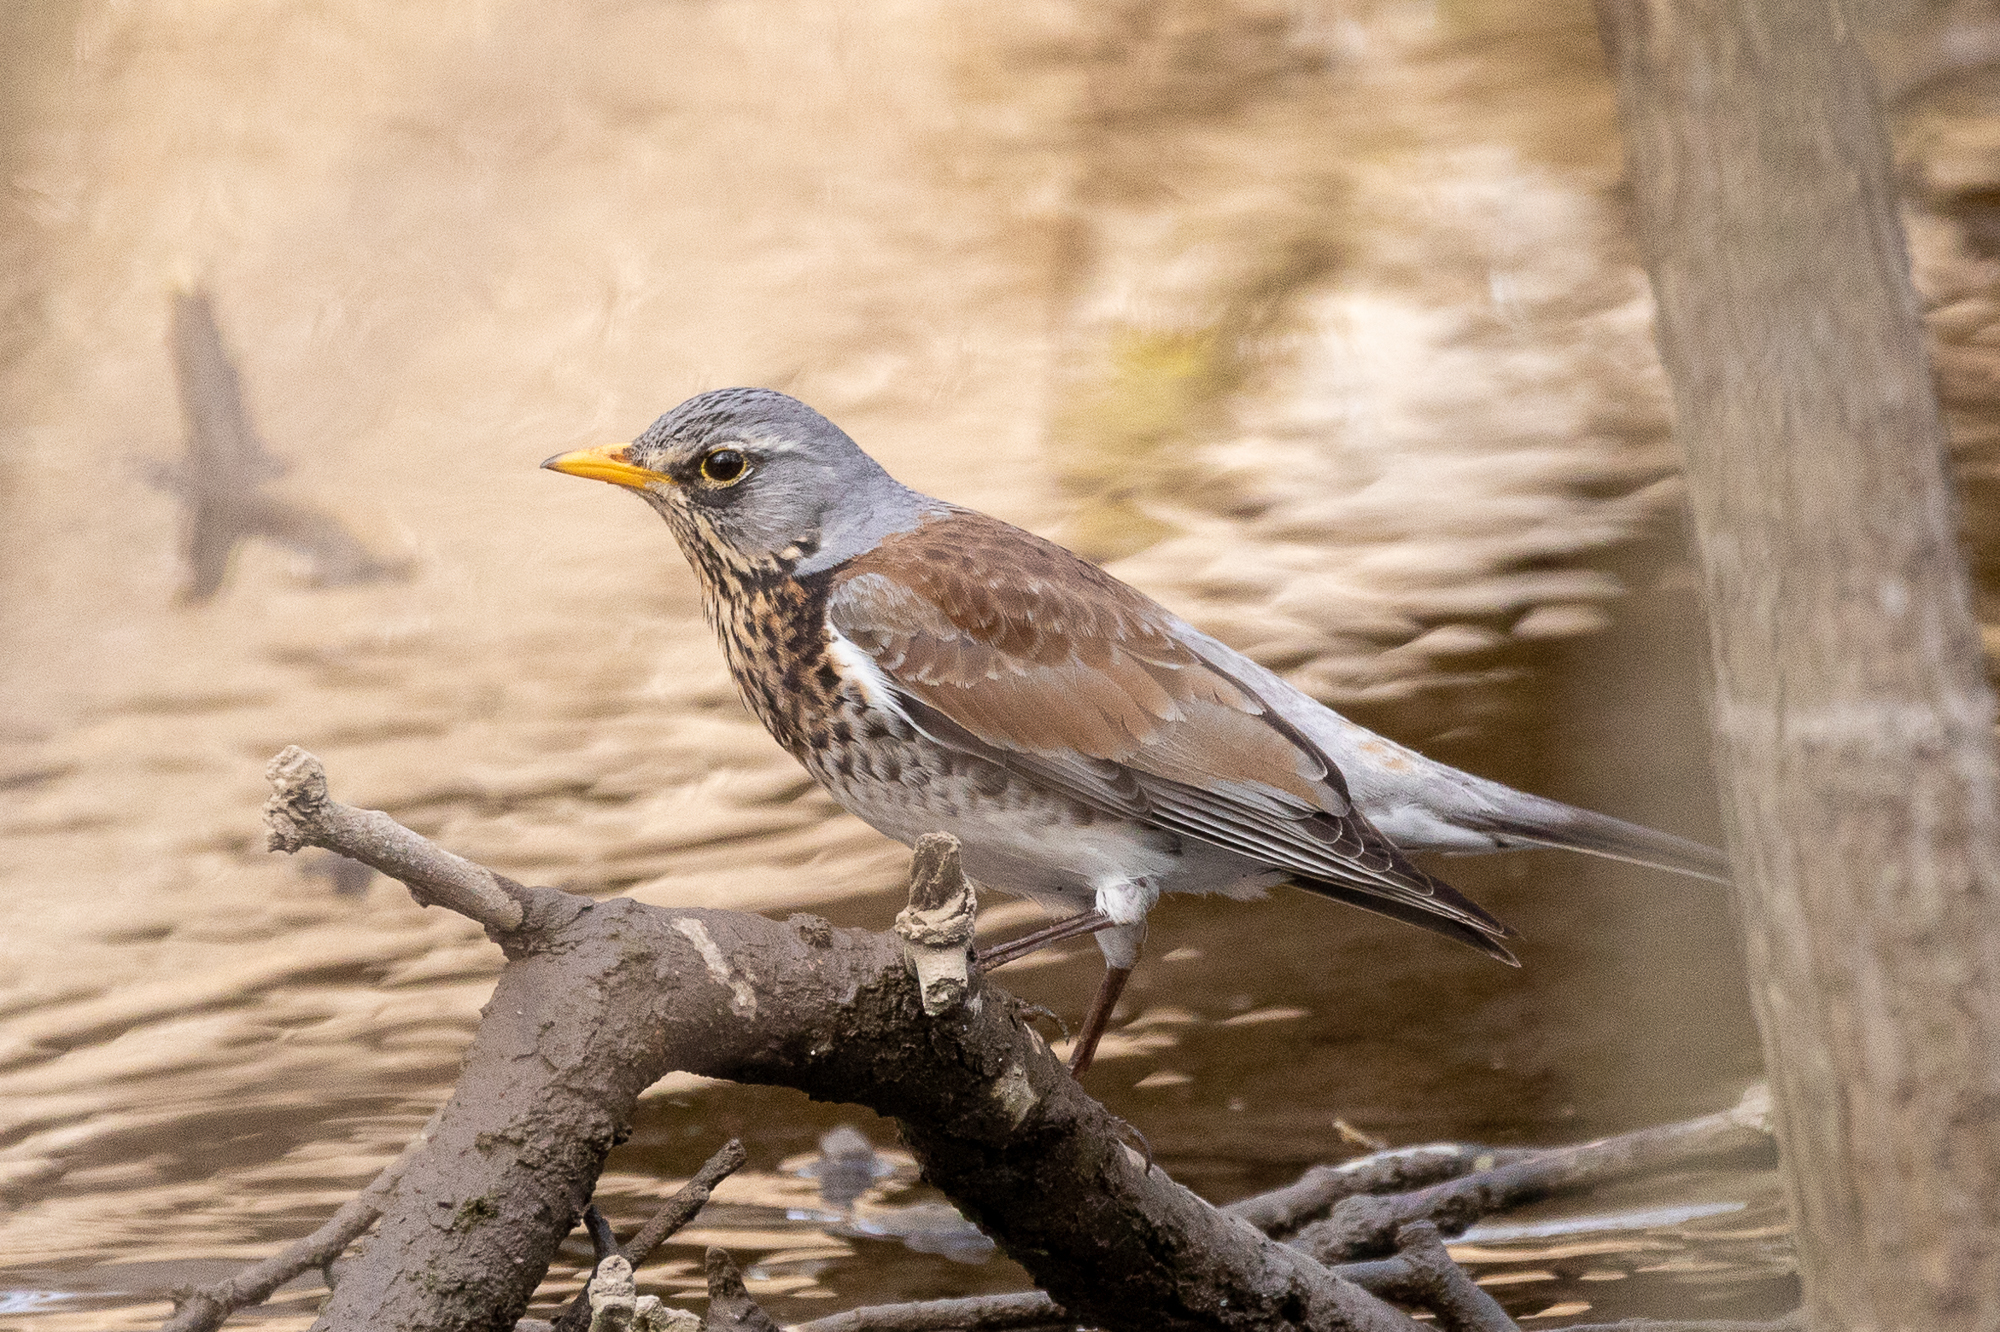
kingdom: Animalia
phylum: Chordata
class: Aves
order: Passeriformes
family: Turdidae
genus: Turdus
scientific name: Turdus pilaris
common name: Fieldfare
